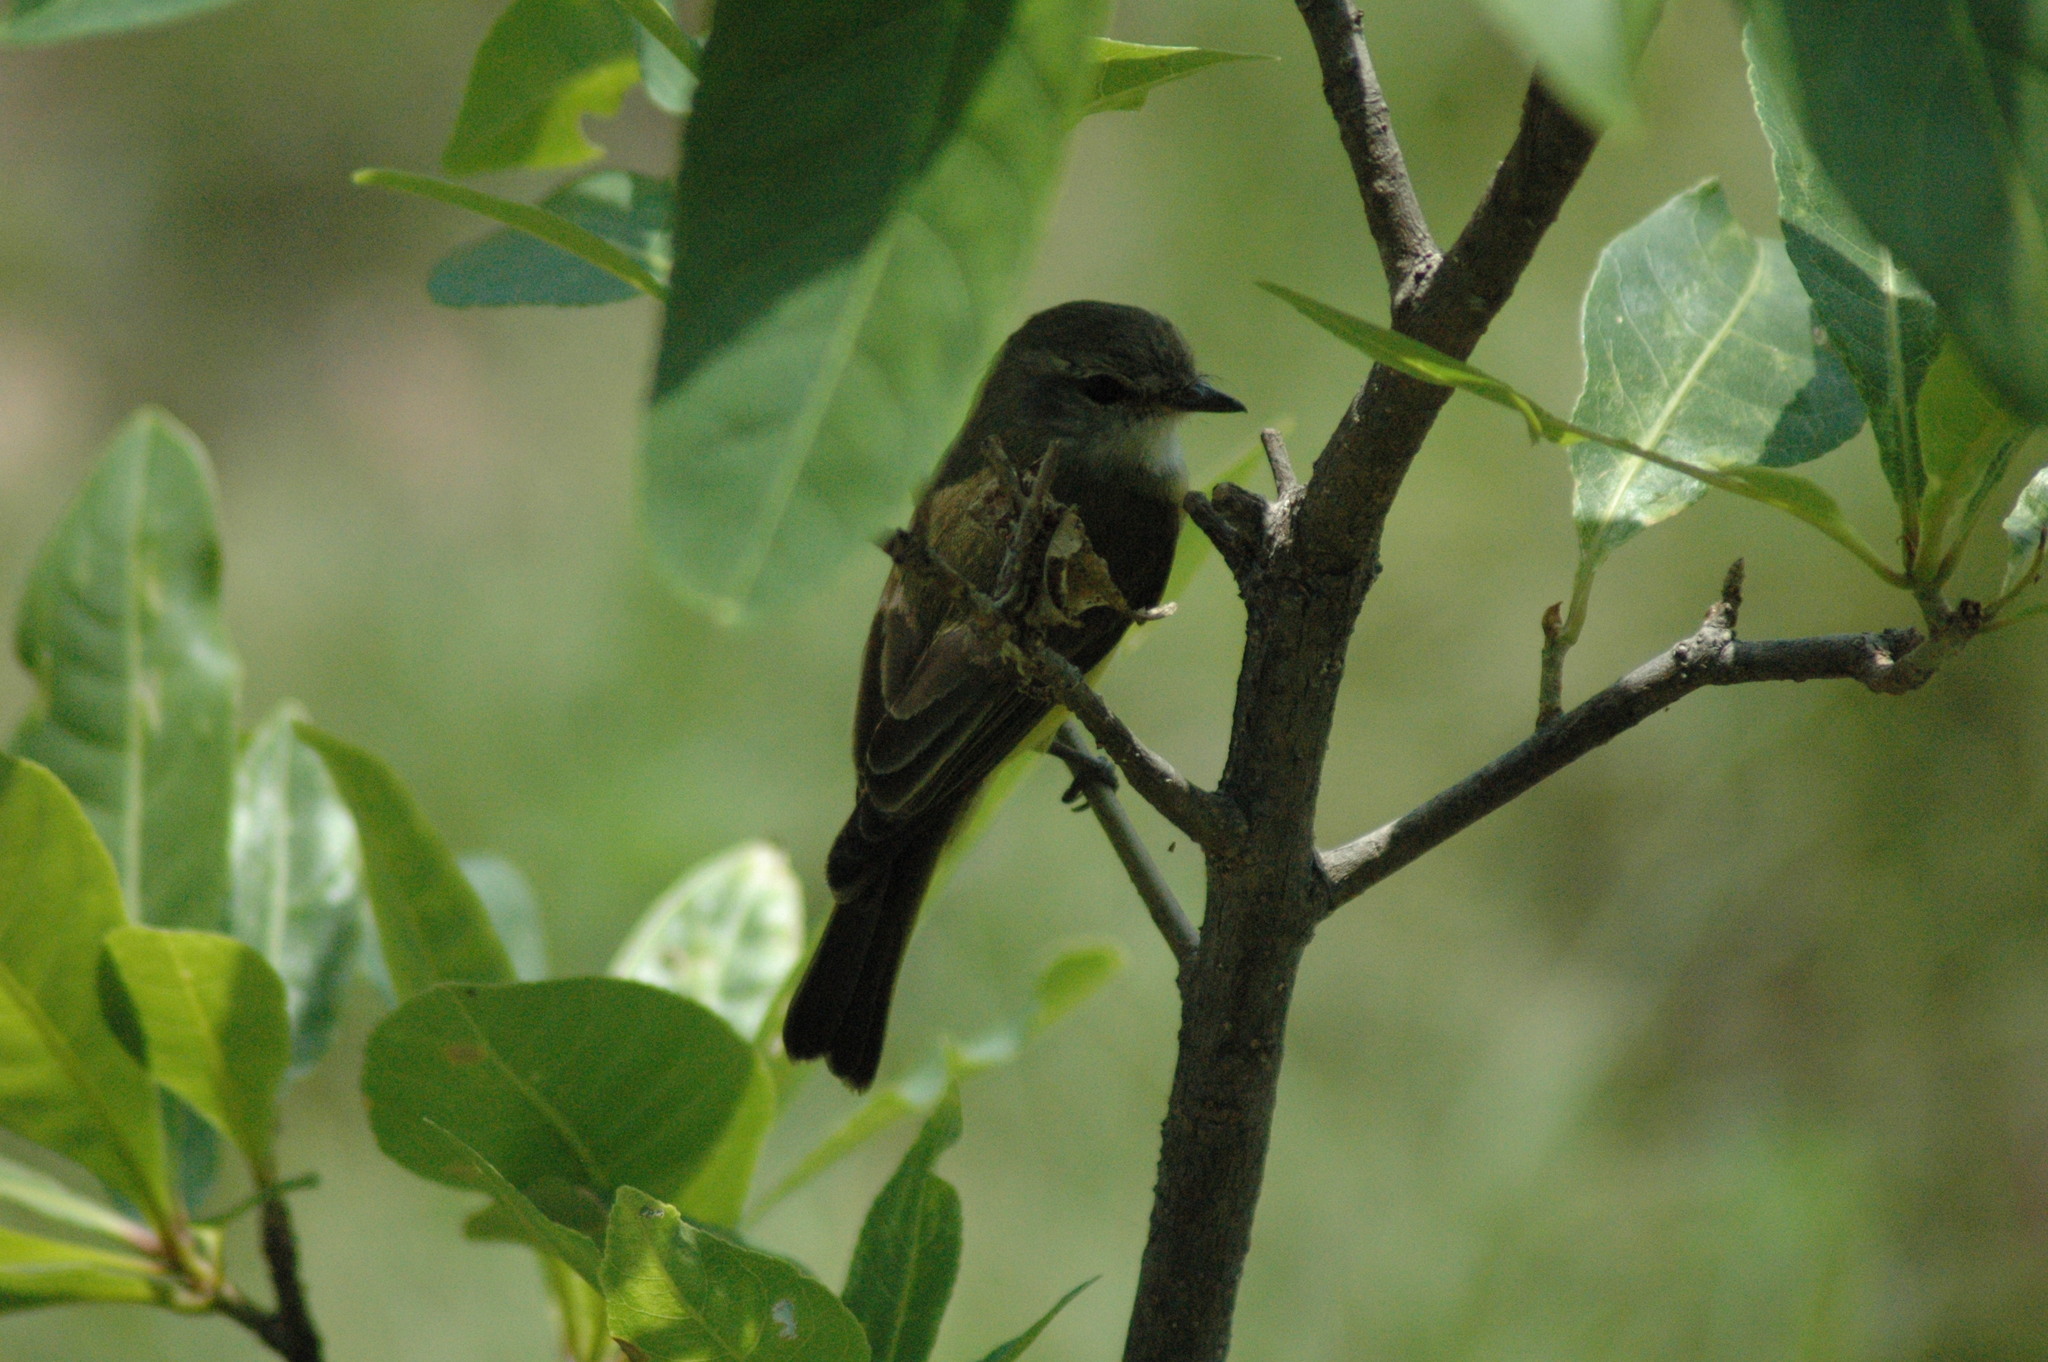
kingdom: Animalia
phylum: Chordata
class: Aves
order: Passeriformes
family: Petroicidae
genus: Microeca
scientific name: Microeca flavigaster
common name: Lemon-bellied flyrobin
